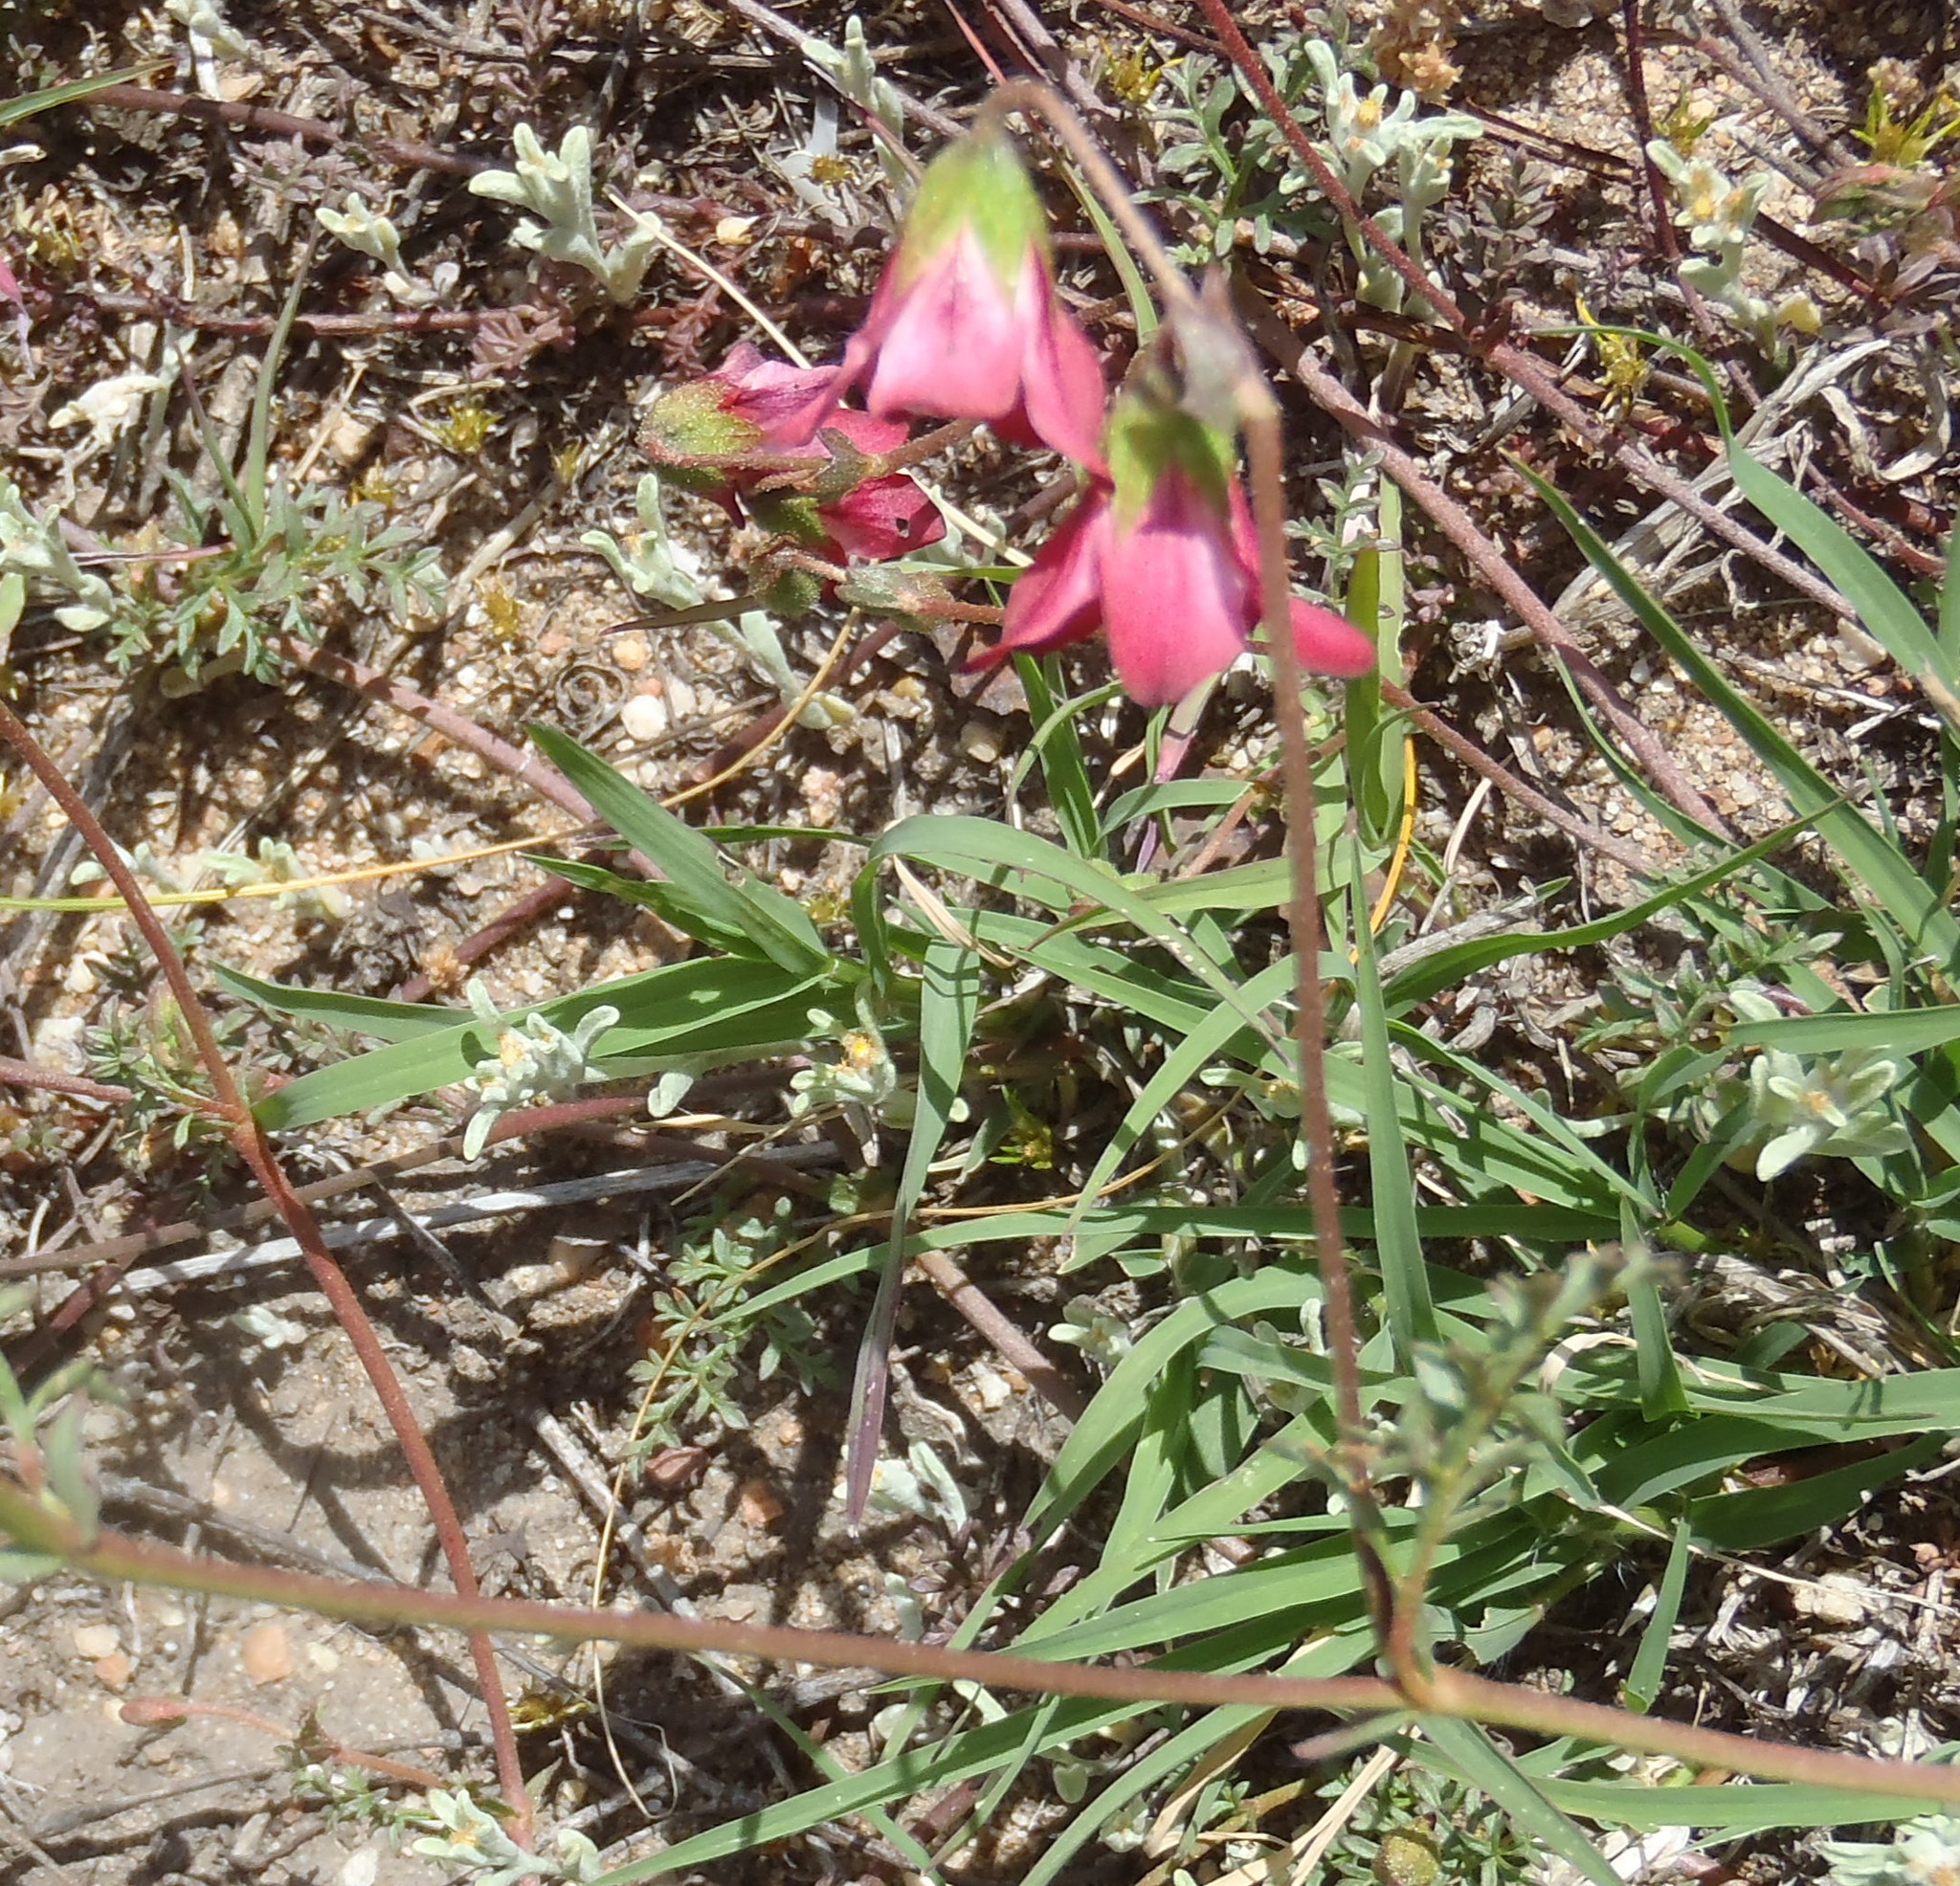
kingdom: Plantae
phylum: Tracheophyta
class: Magnoliopsida
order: Malvales
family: Malvaceae
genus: Hermannia
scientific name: Hermannia bicolor
